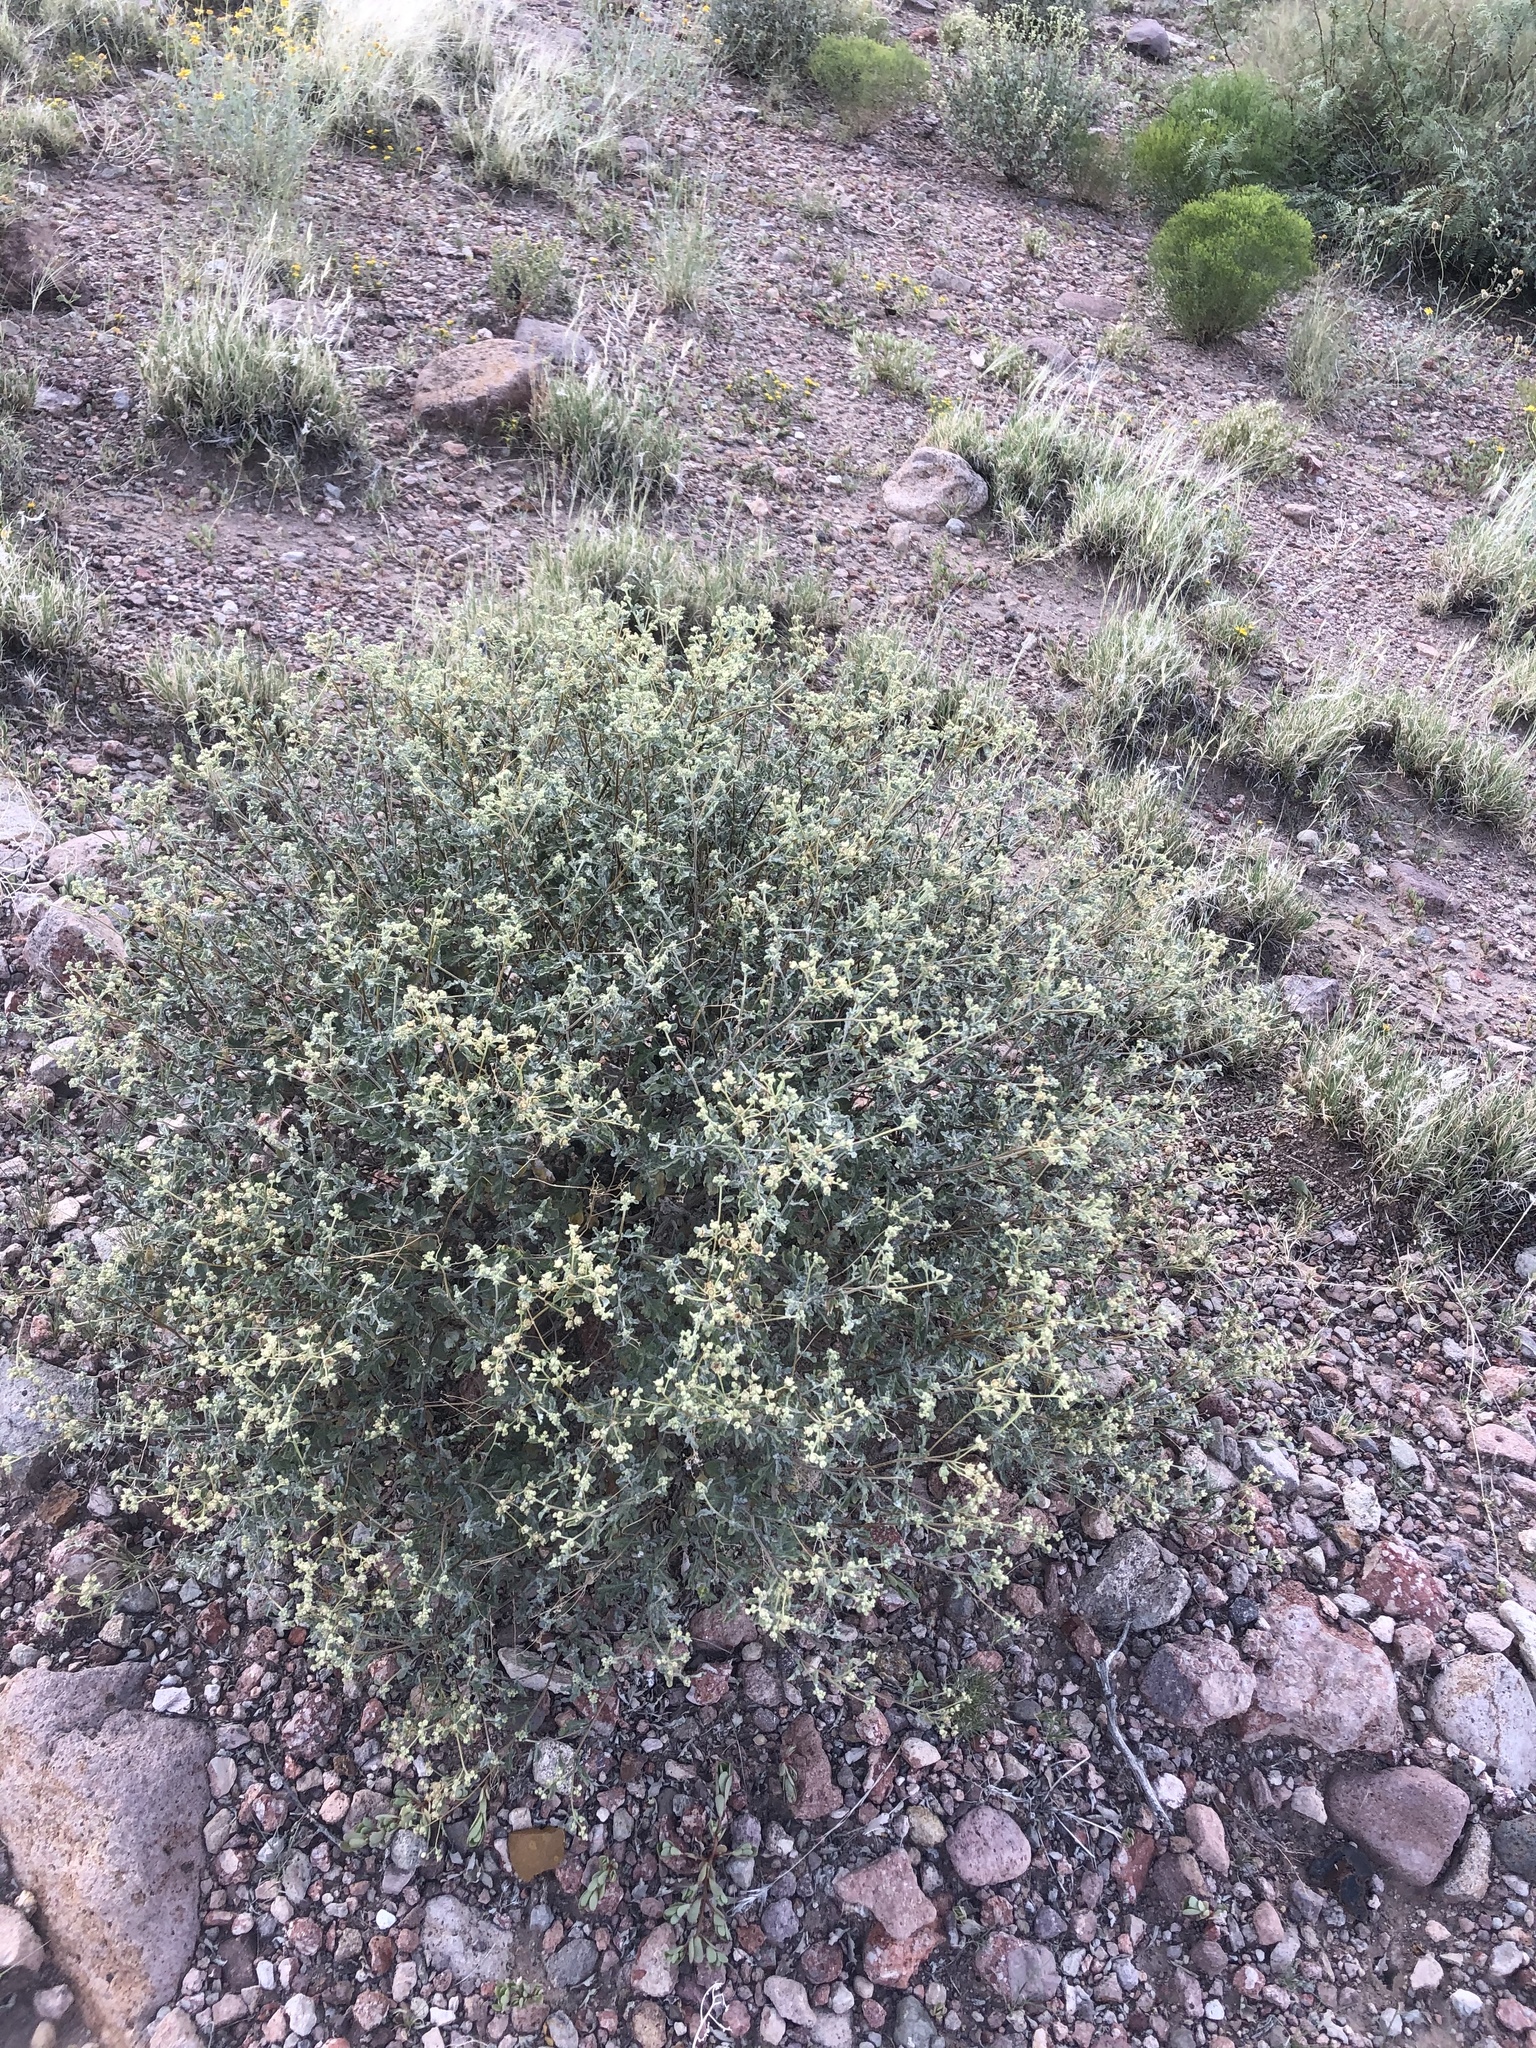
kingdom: Plantae
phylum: Tracheophyta
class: Magnoliopsida
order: Asterales
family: Asteraceae
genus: Parthenium
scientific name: Parthenium incanum
